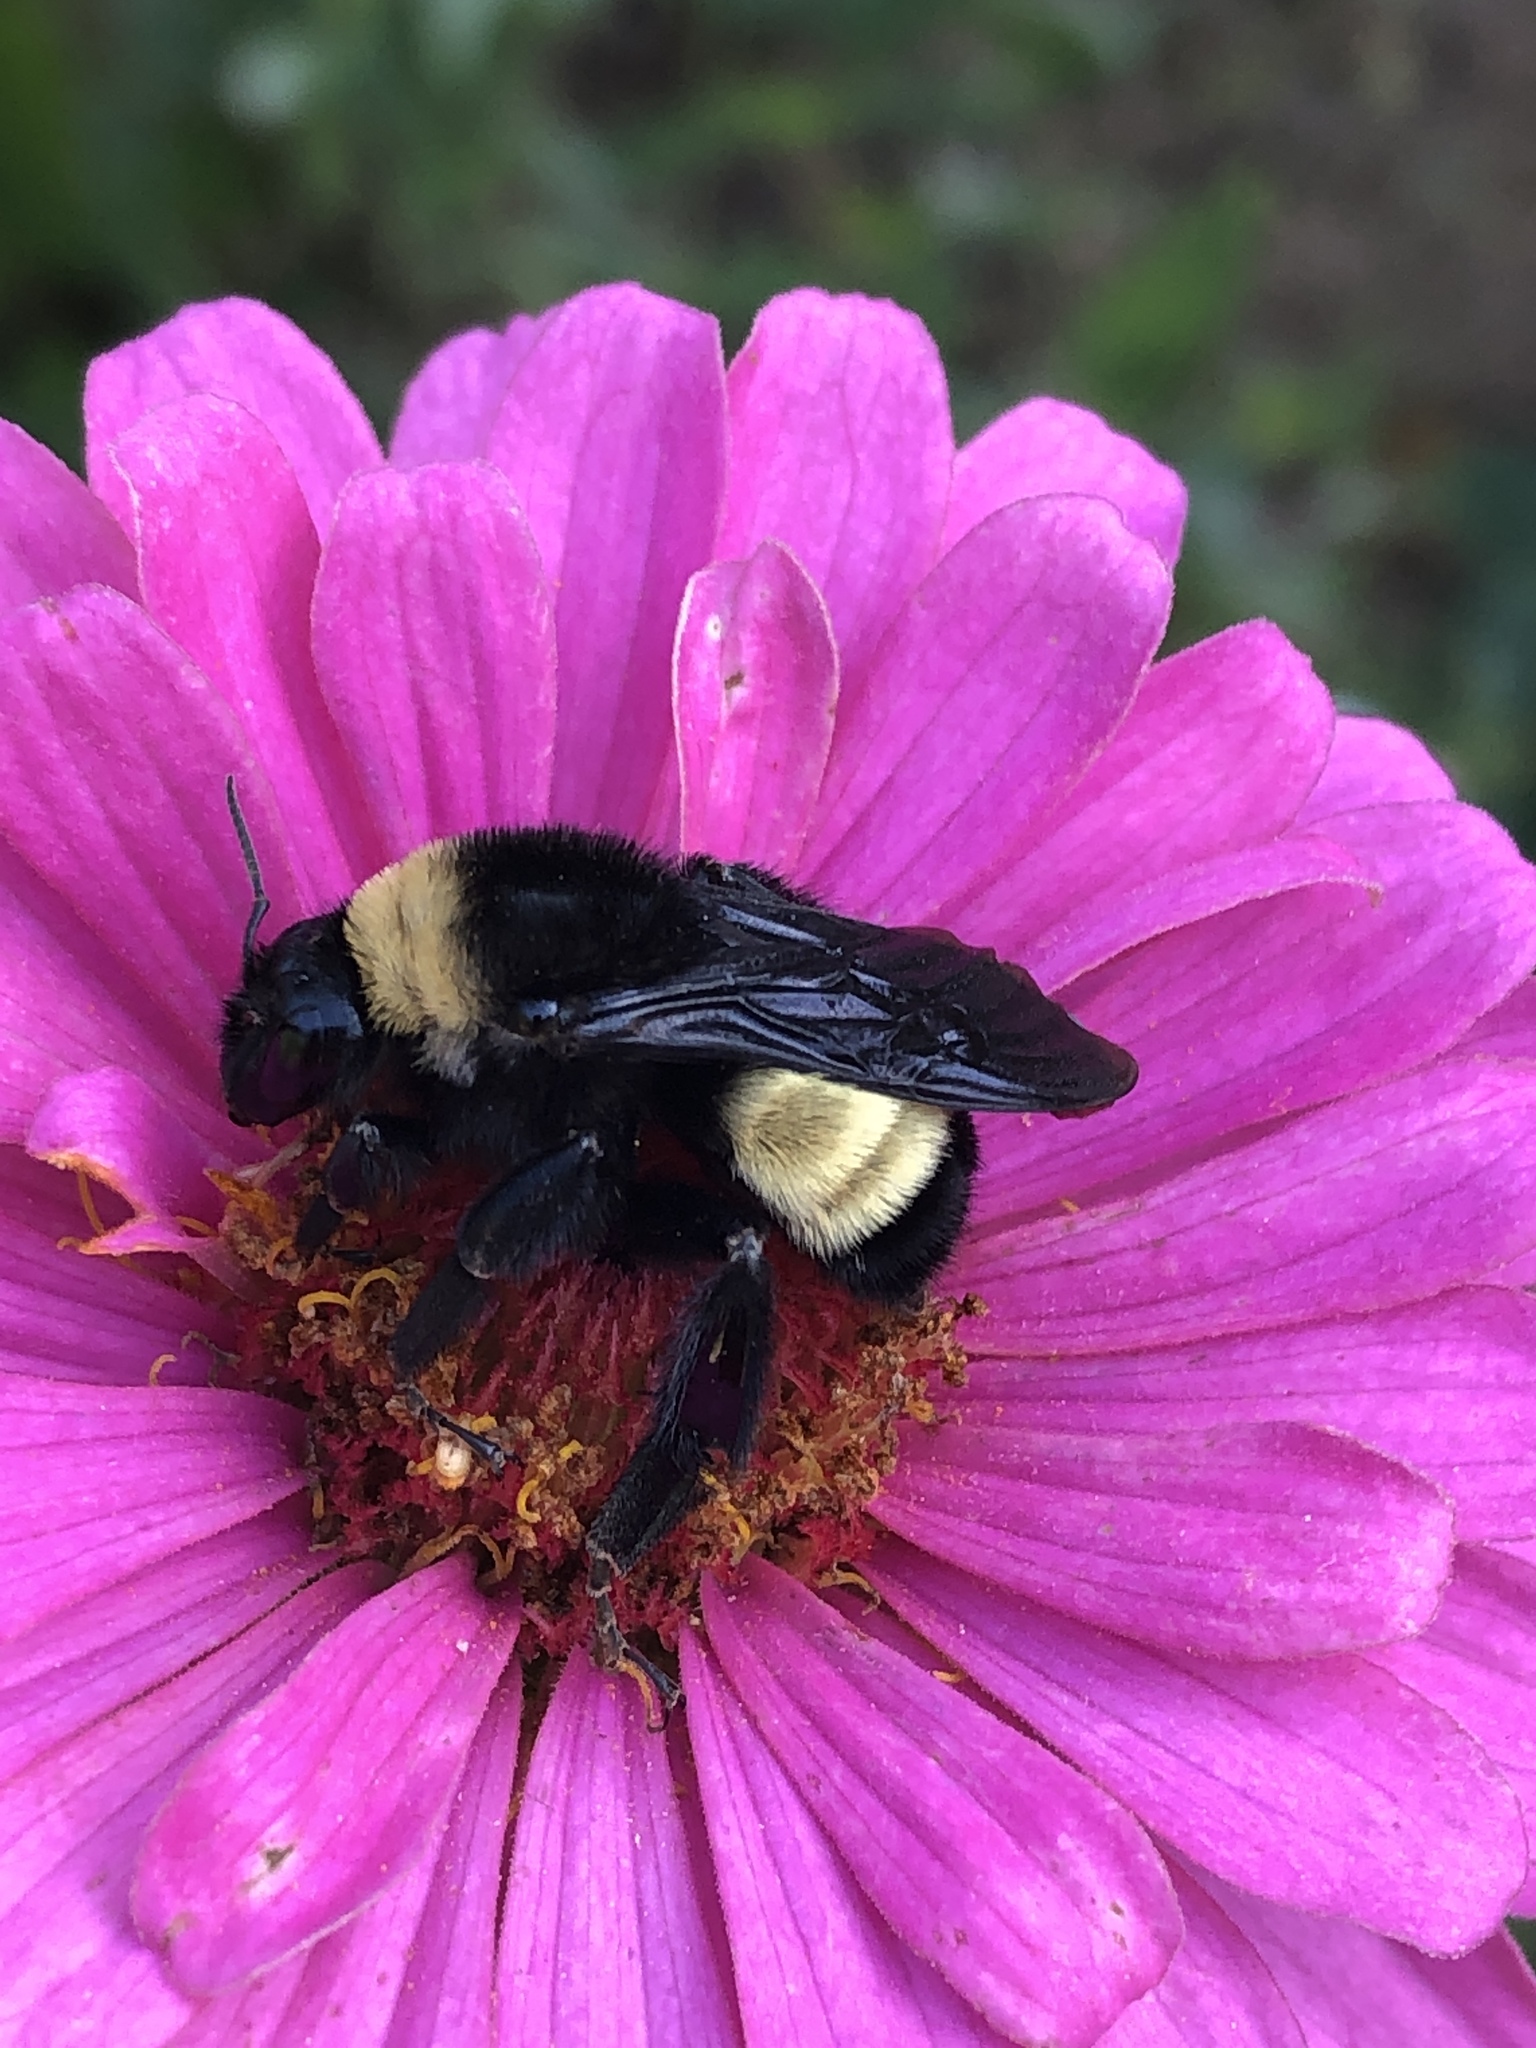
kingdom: Animalia
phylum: Arthropoda
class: Insecta
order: Hymenoptera
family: Apidae
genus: Bombus
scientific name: Bombus pensylvanicus
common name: Bumble bee
